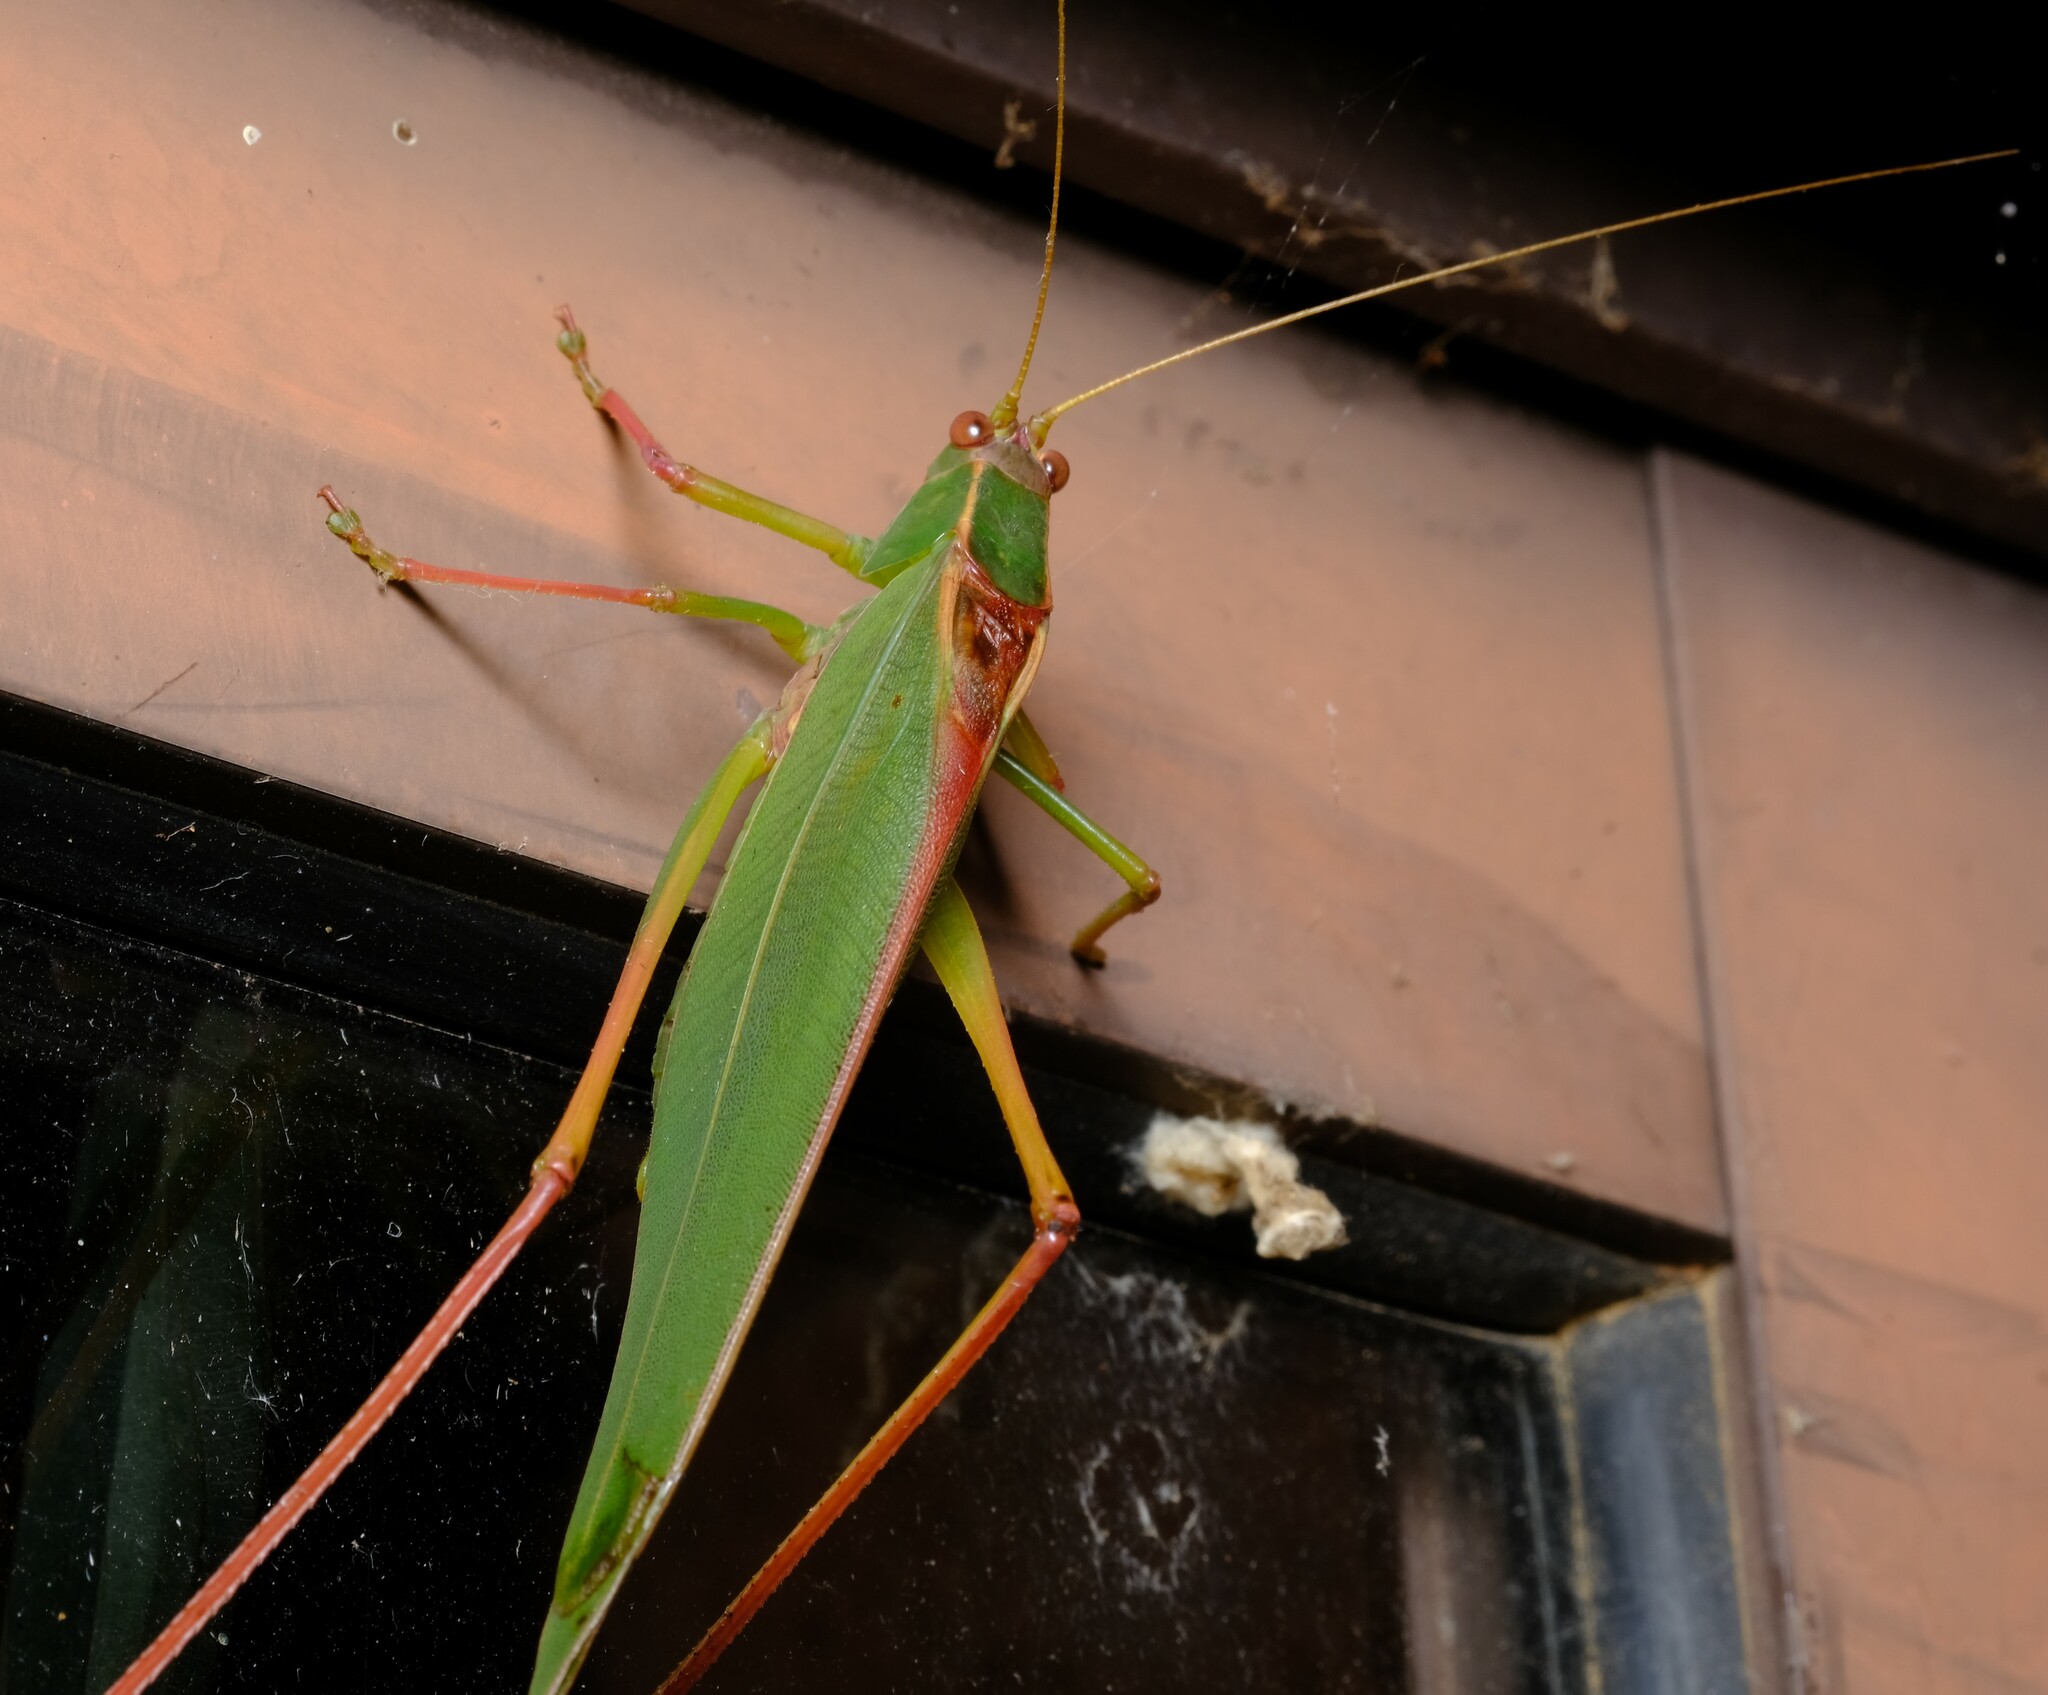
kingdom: Animalia
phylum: Arthropoda
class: Insecta
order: Orthoptera
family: Tettigoniidae
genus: Torbia
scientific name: Torbia viridissima
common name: Non-predaceous gum leaf katydid
